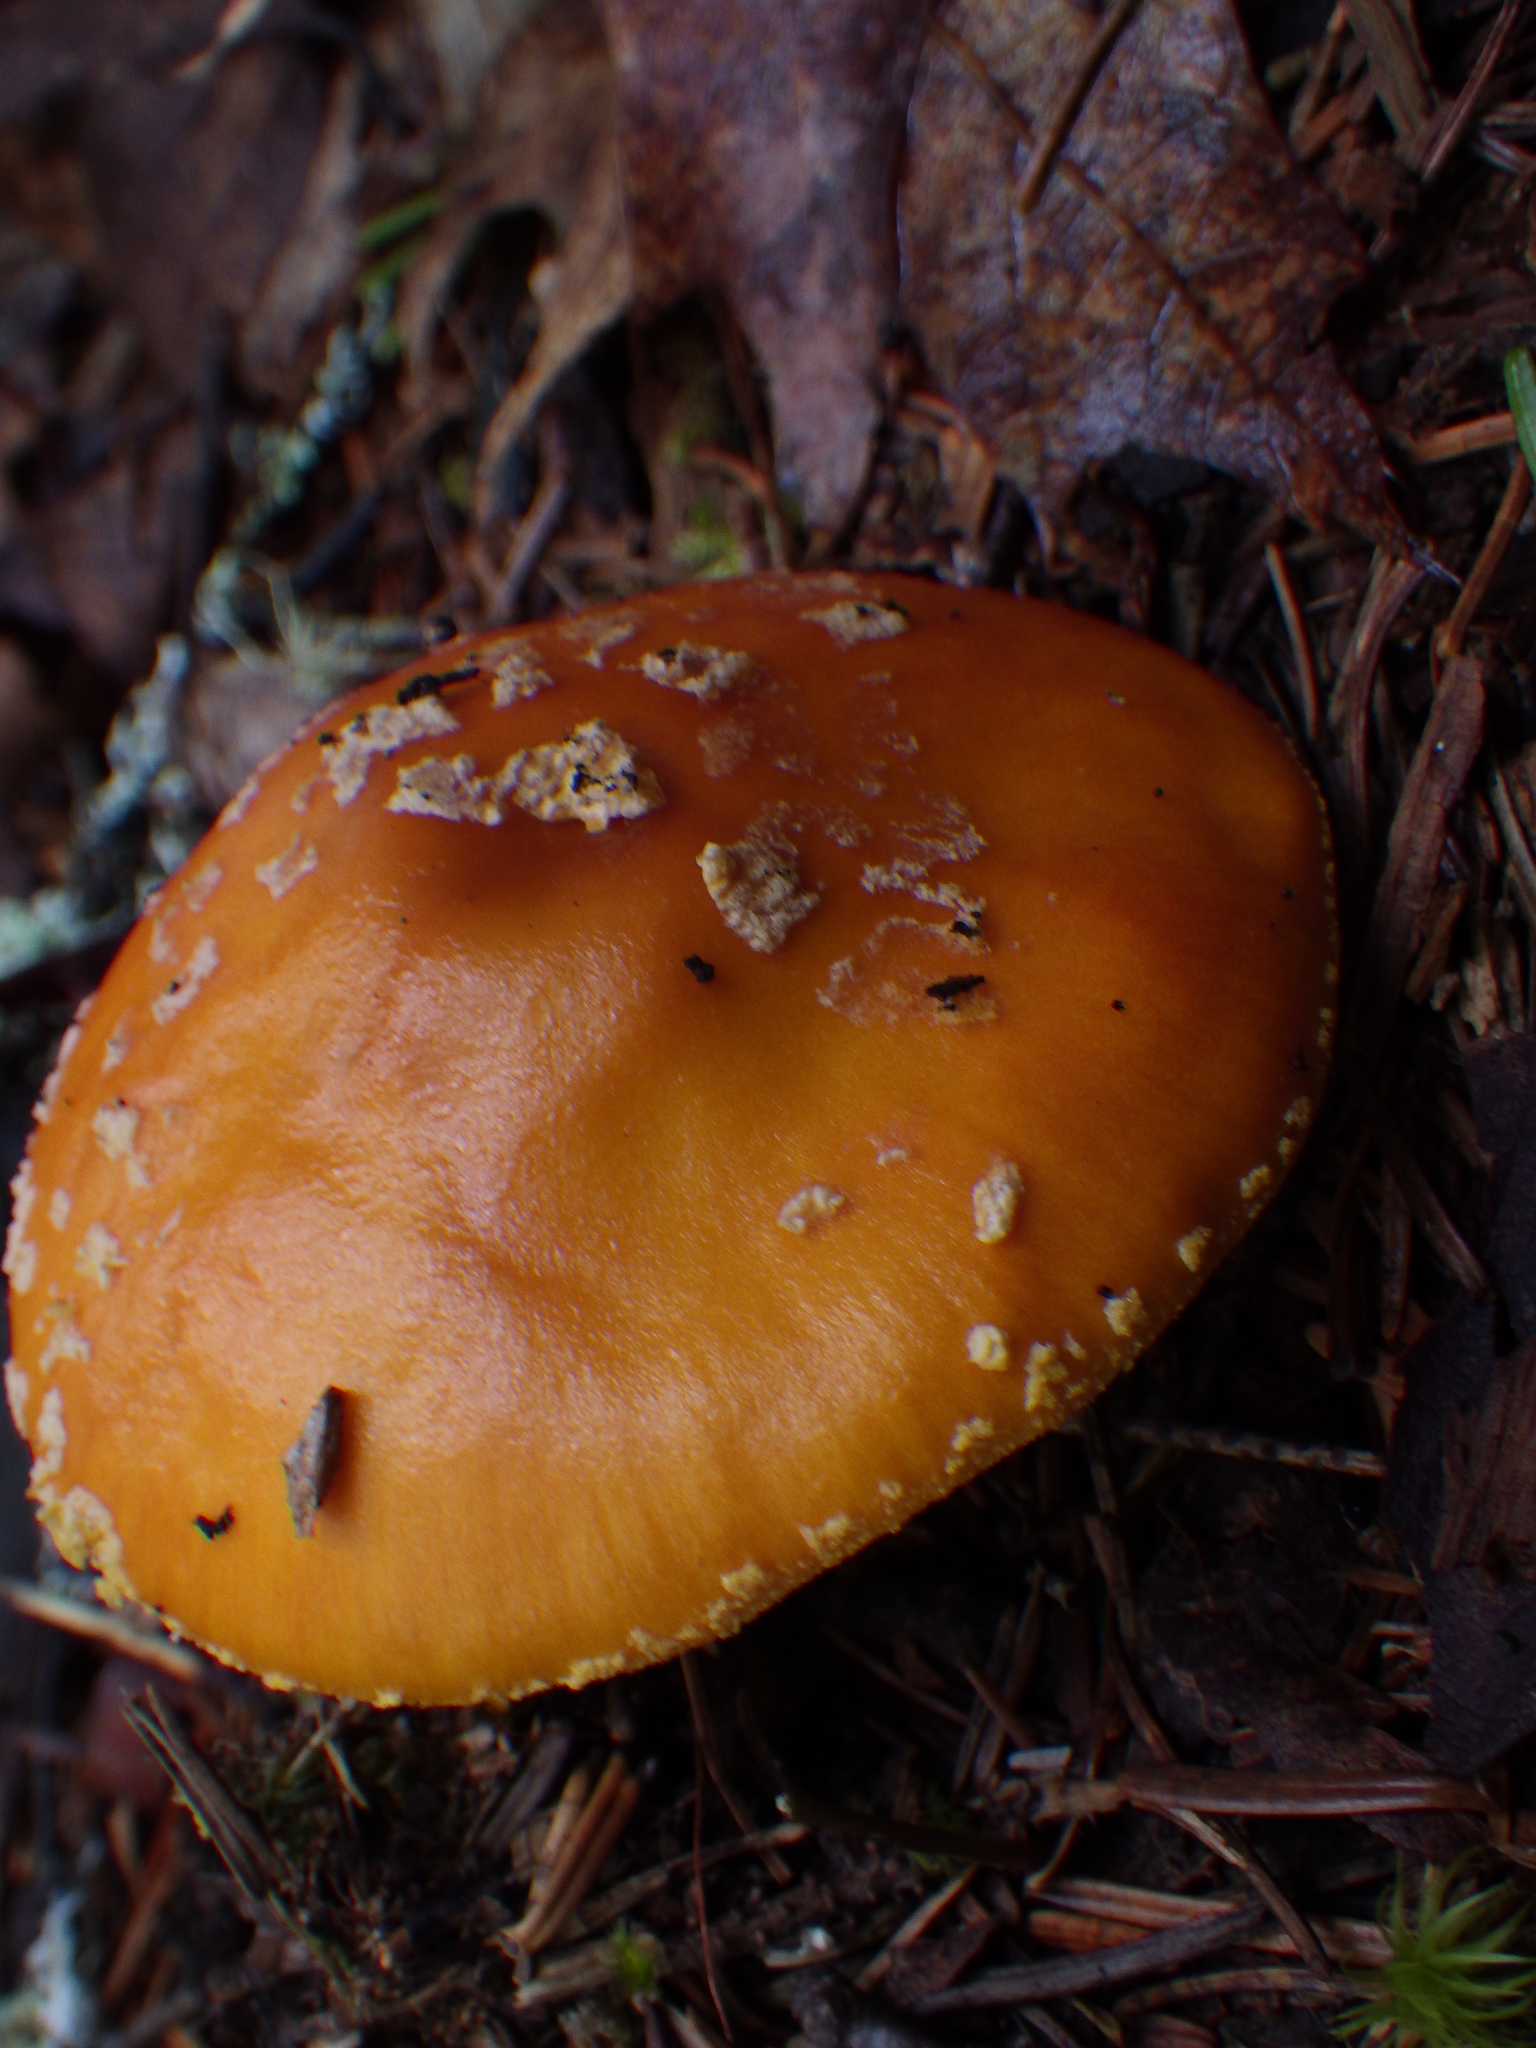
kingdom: Fungi
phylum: Basidiomycota
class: Agaricomycetes
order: Agaricales
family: Amanitaceae
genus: Amanita
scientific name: Amanita flavoconia
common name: Yellow patches
